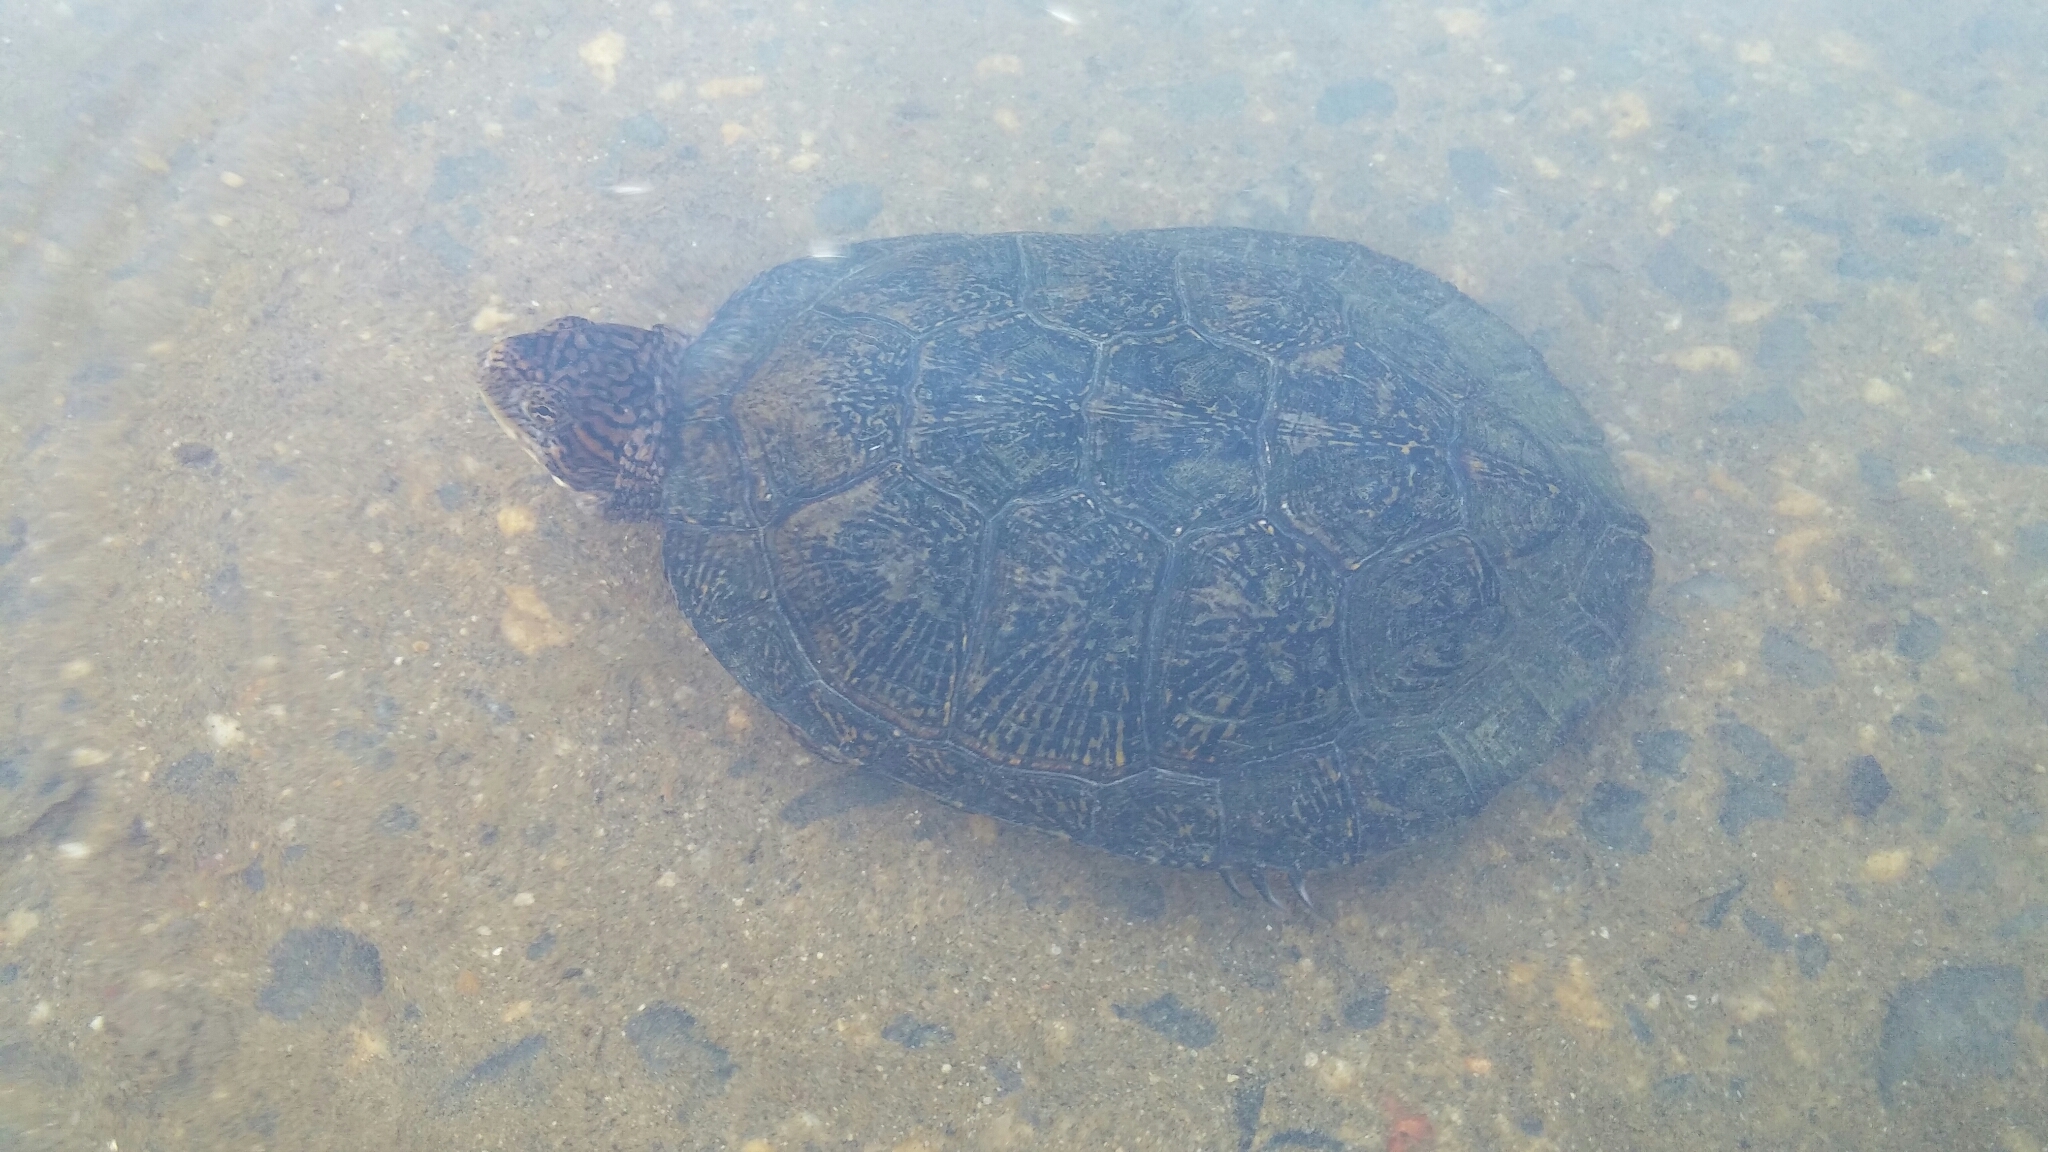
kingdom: Animalia
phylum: Chordata
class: Testudines
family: Emydidae
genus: Actinemys
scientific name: Actinemys marmorata
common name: Western pond turtle
